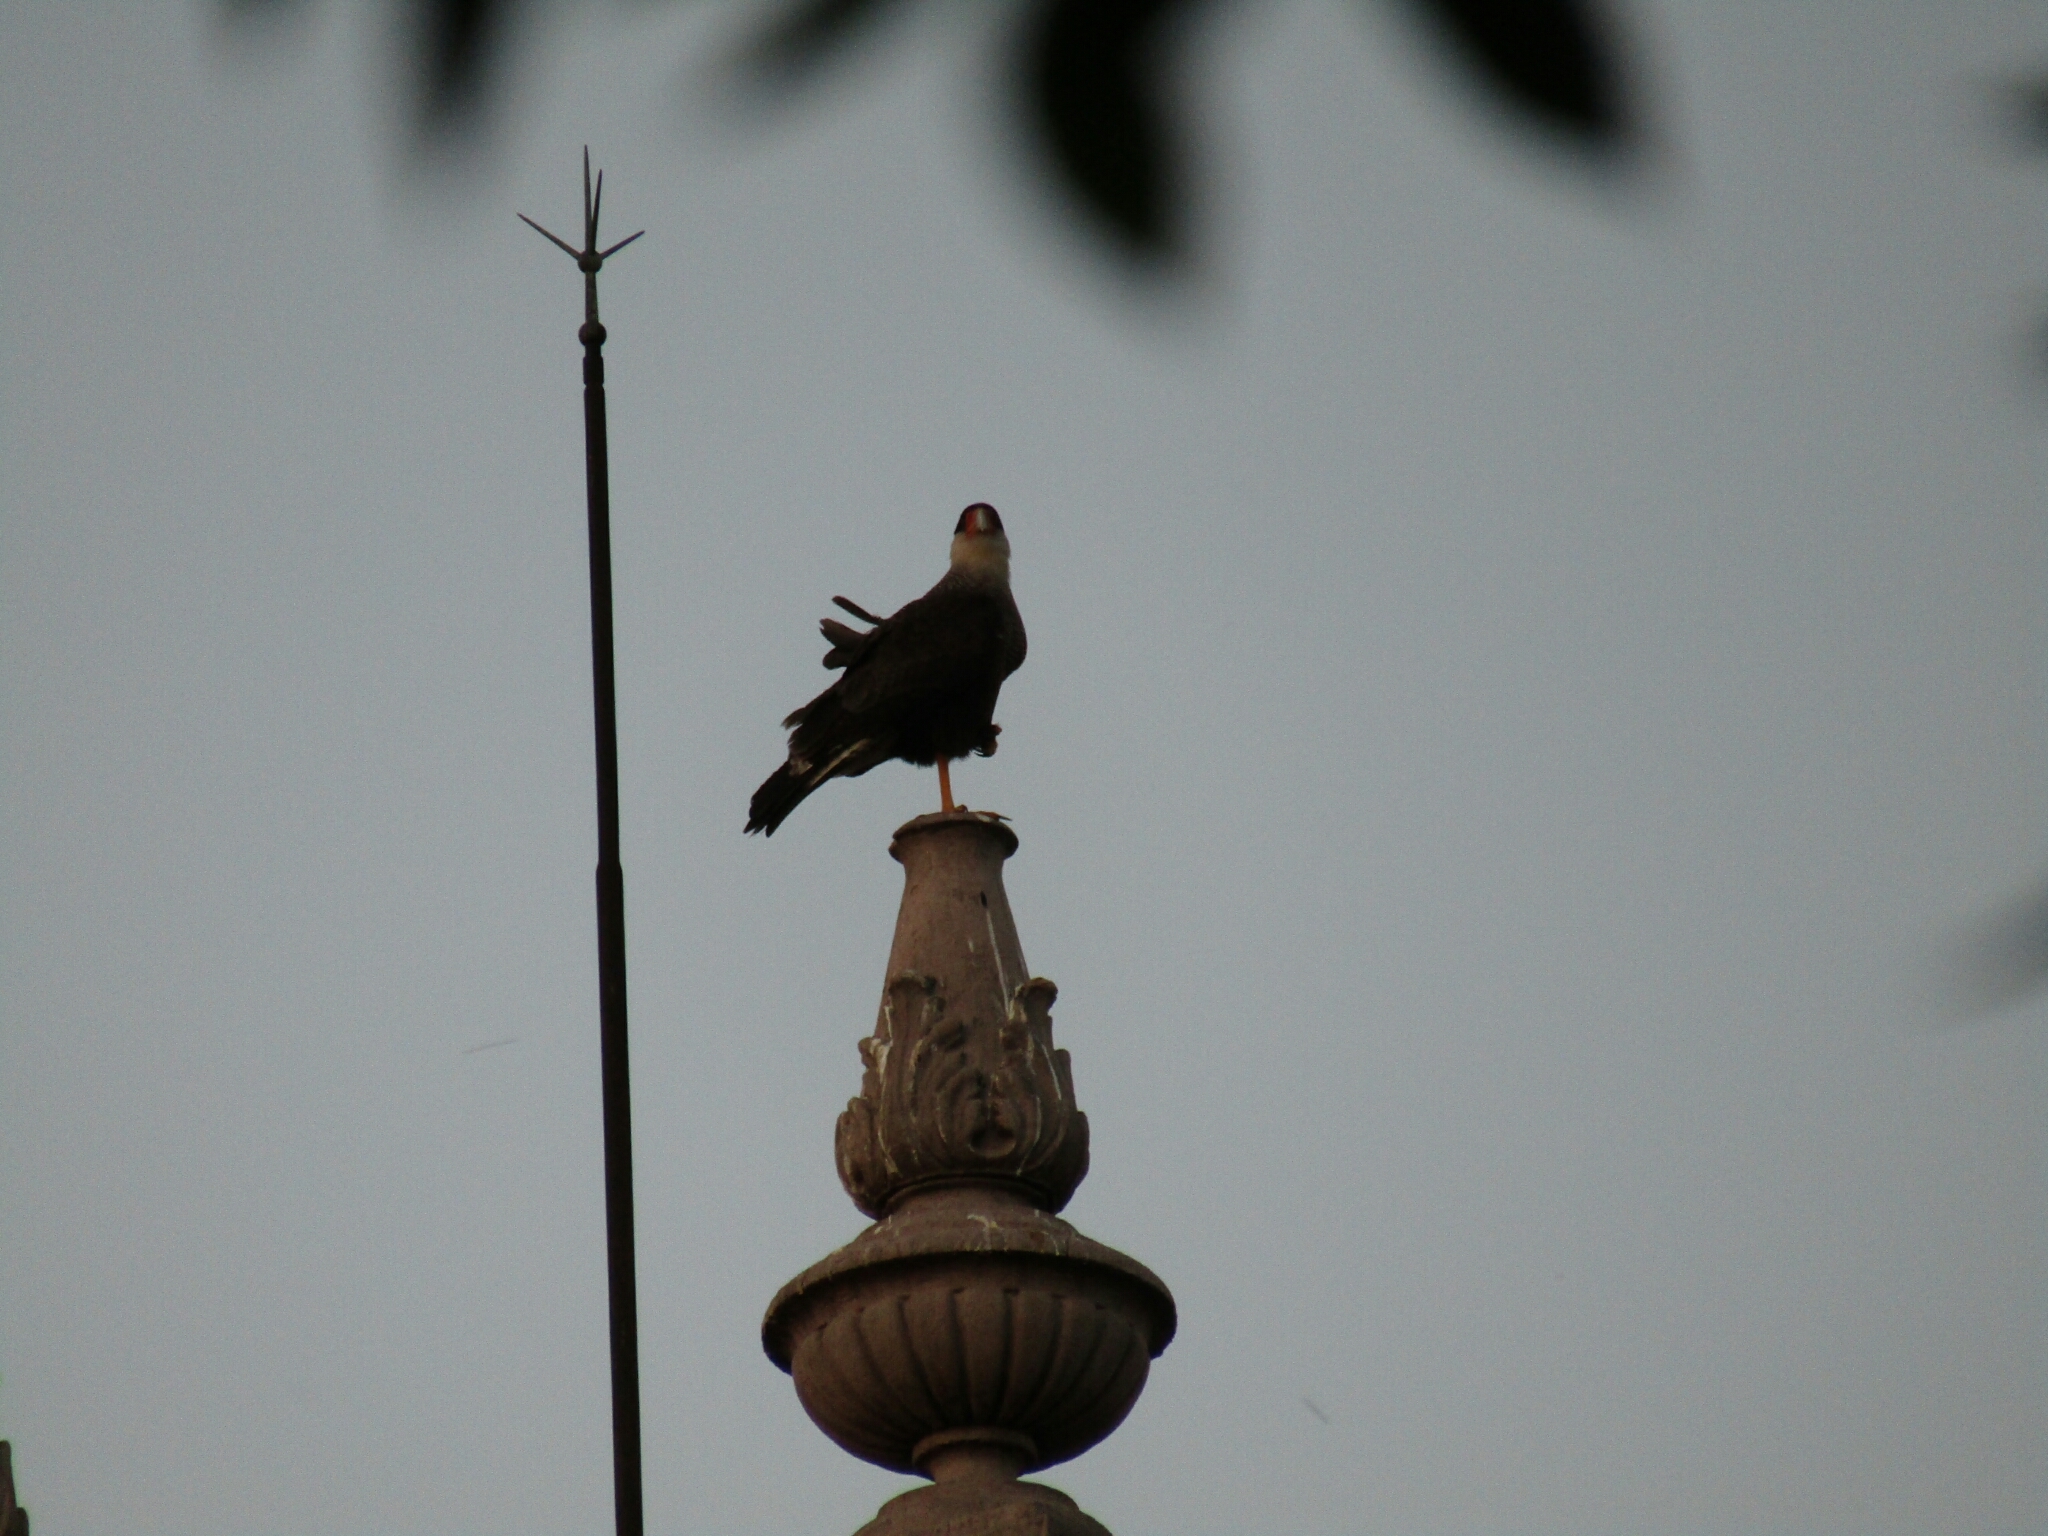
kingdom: Animalia
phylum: Chordata
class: Aves
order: Falconiformes
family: Falconidae
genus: Caracara
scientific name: Caracara plancus
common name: Southern caracara
